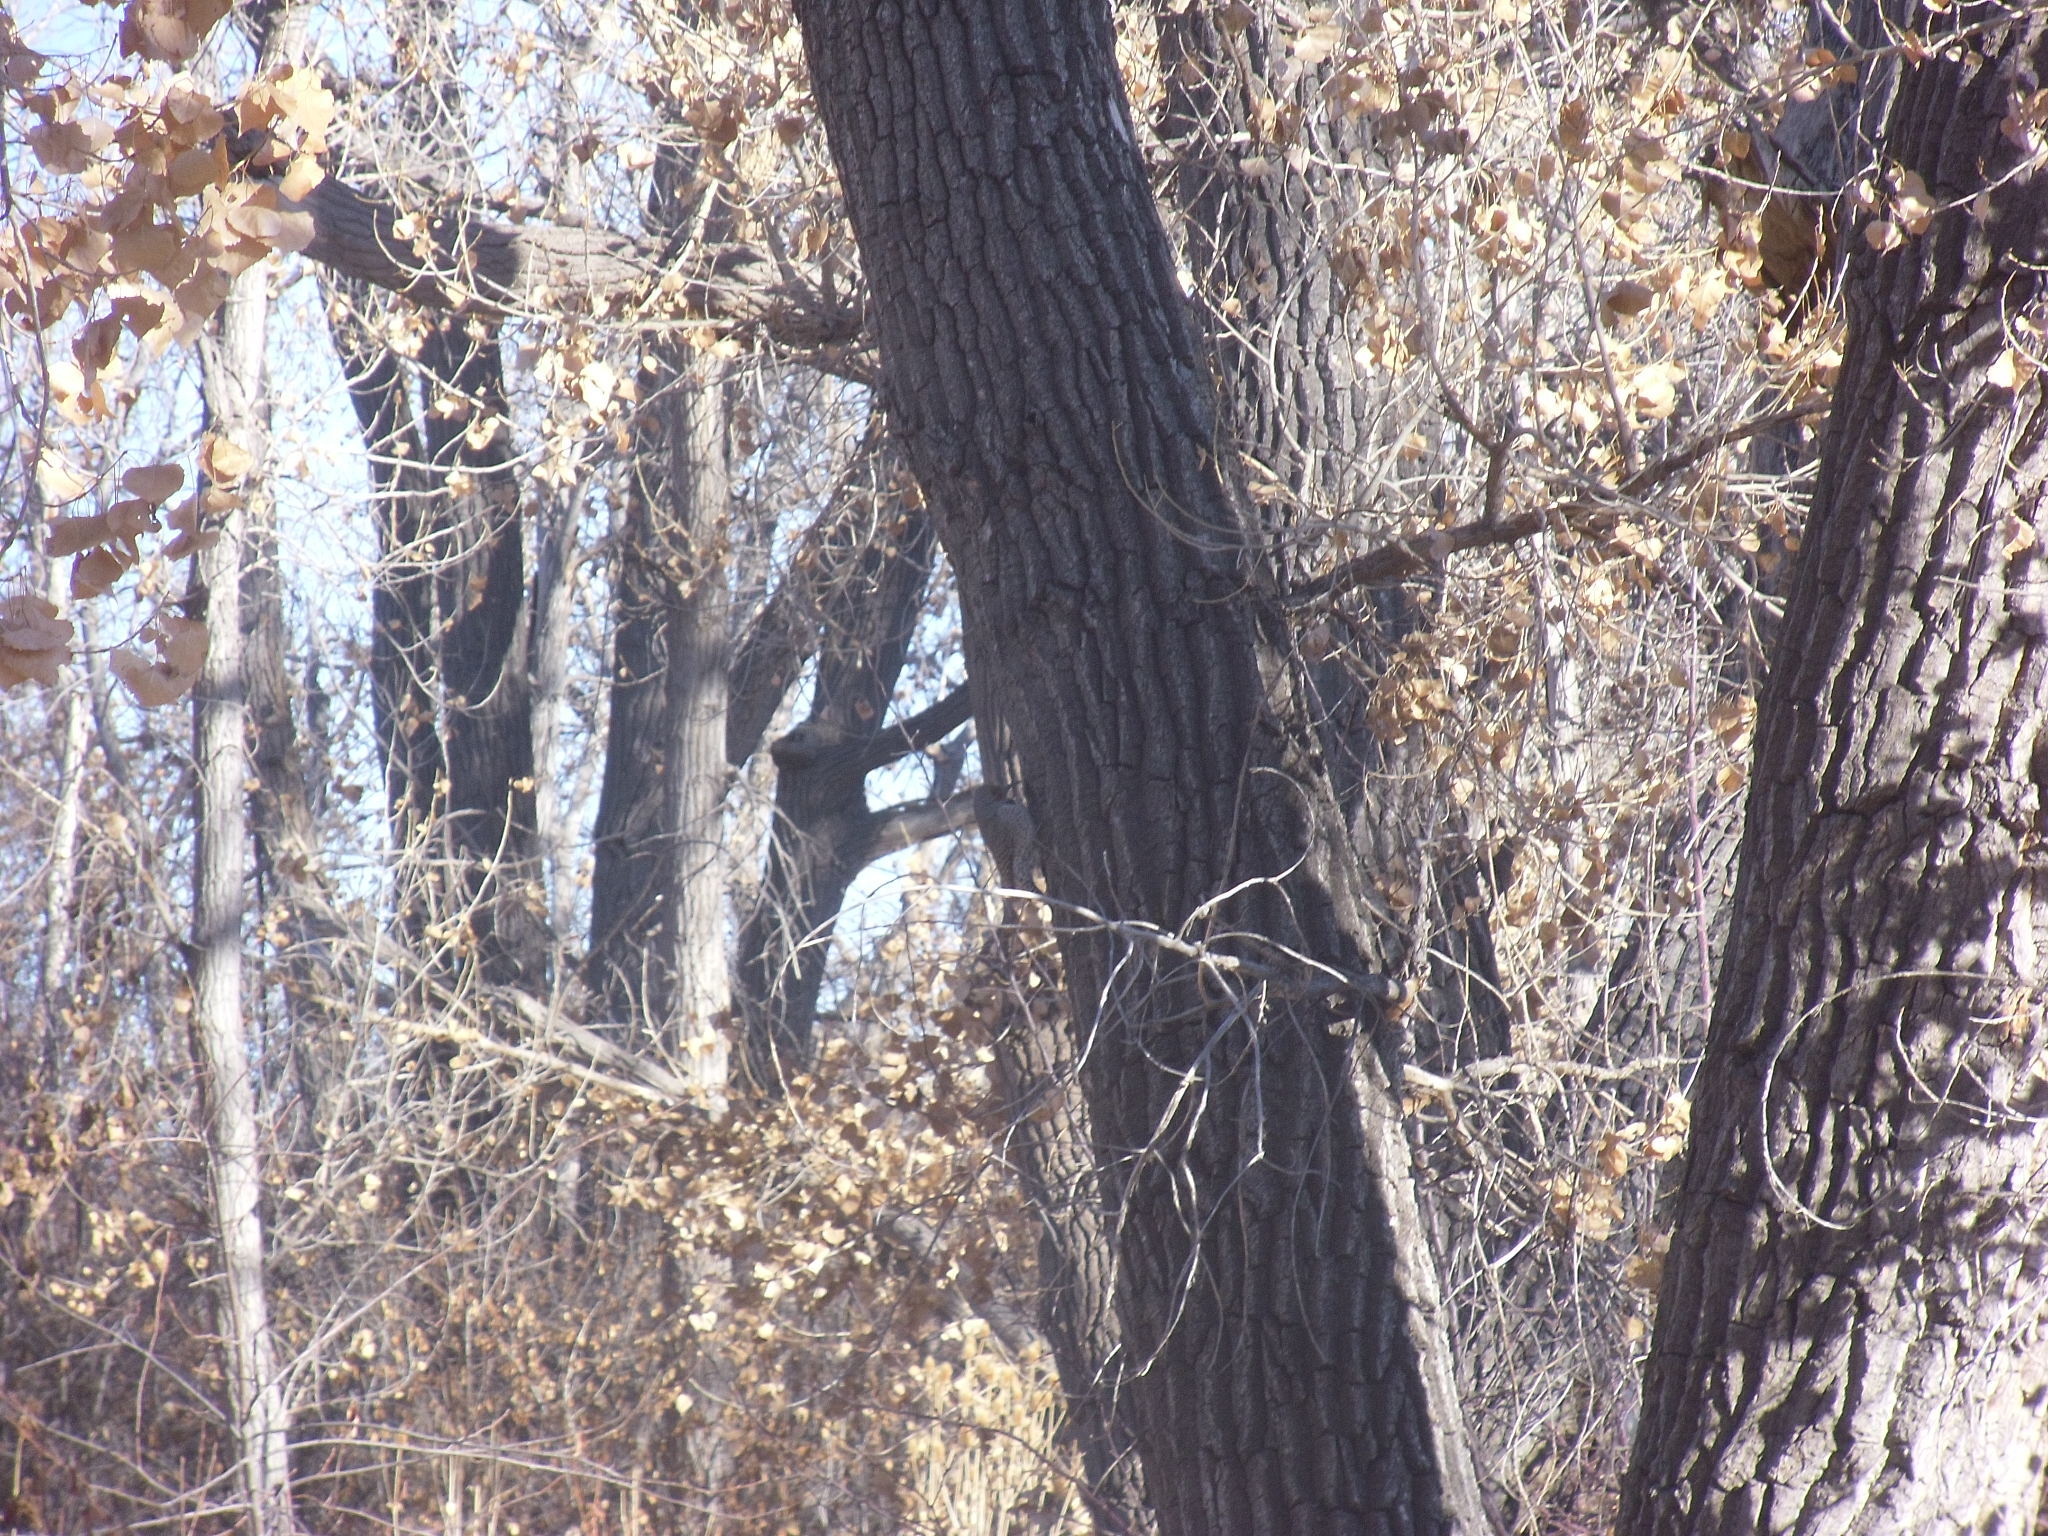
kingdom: Animalia
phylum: Chordata
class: Aves
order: Piciformes
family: Picidae
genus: Colaptes
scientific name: Colaptes auratus
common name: Northern flicker
